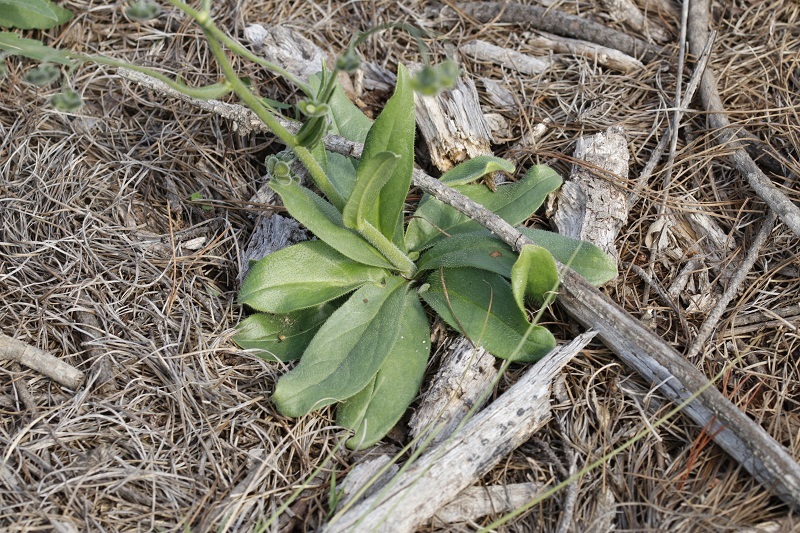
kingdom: Plantae
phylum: Tracheophyta
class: Magnoliopsida
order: Boraginales
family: Boraginaceae
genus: Anchusa
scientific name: Anchusa capensis
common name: Cape bugloss
